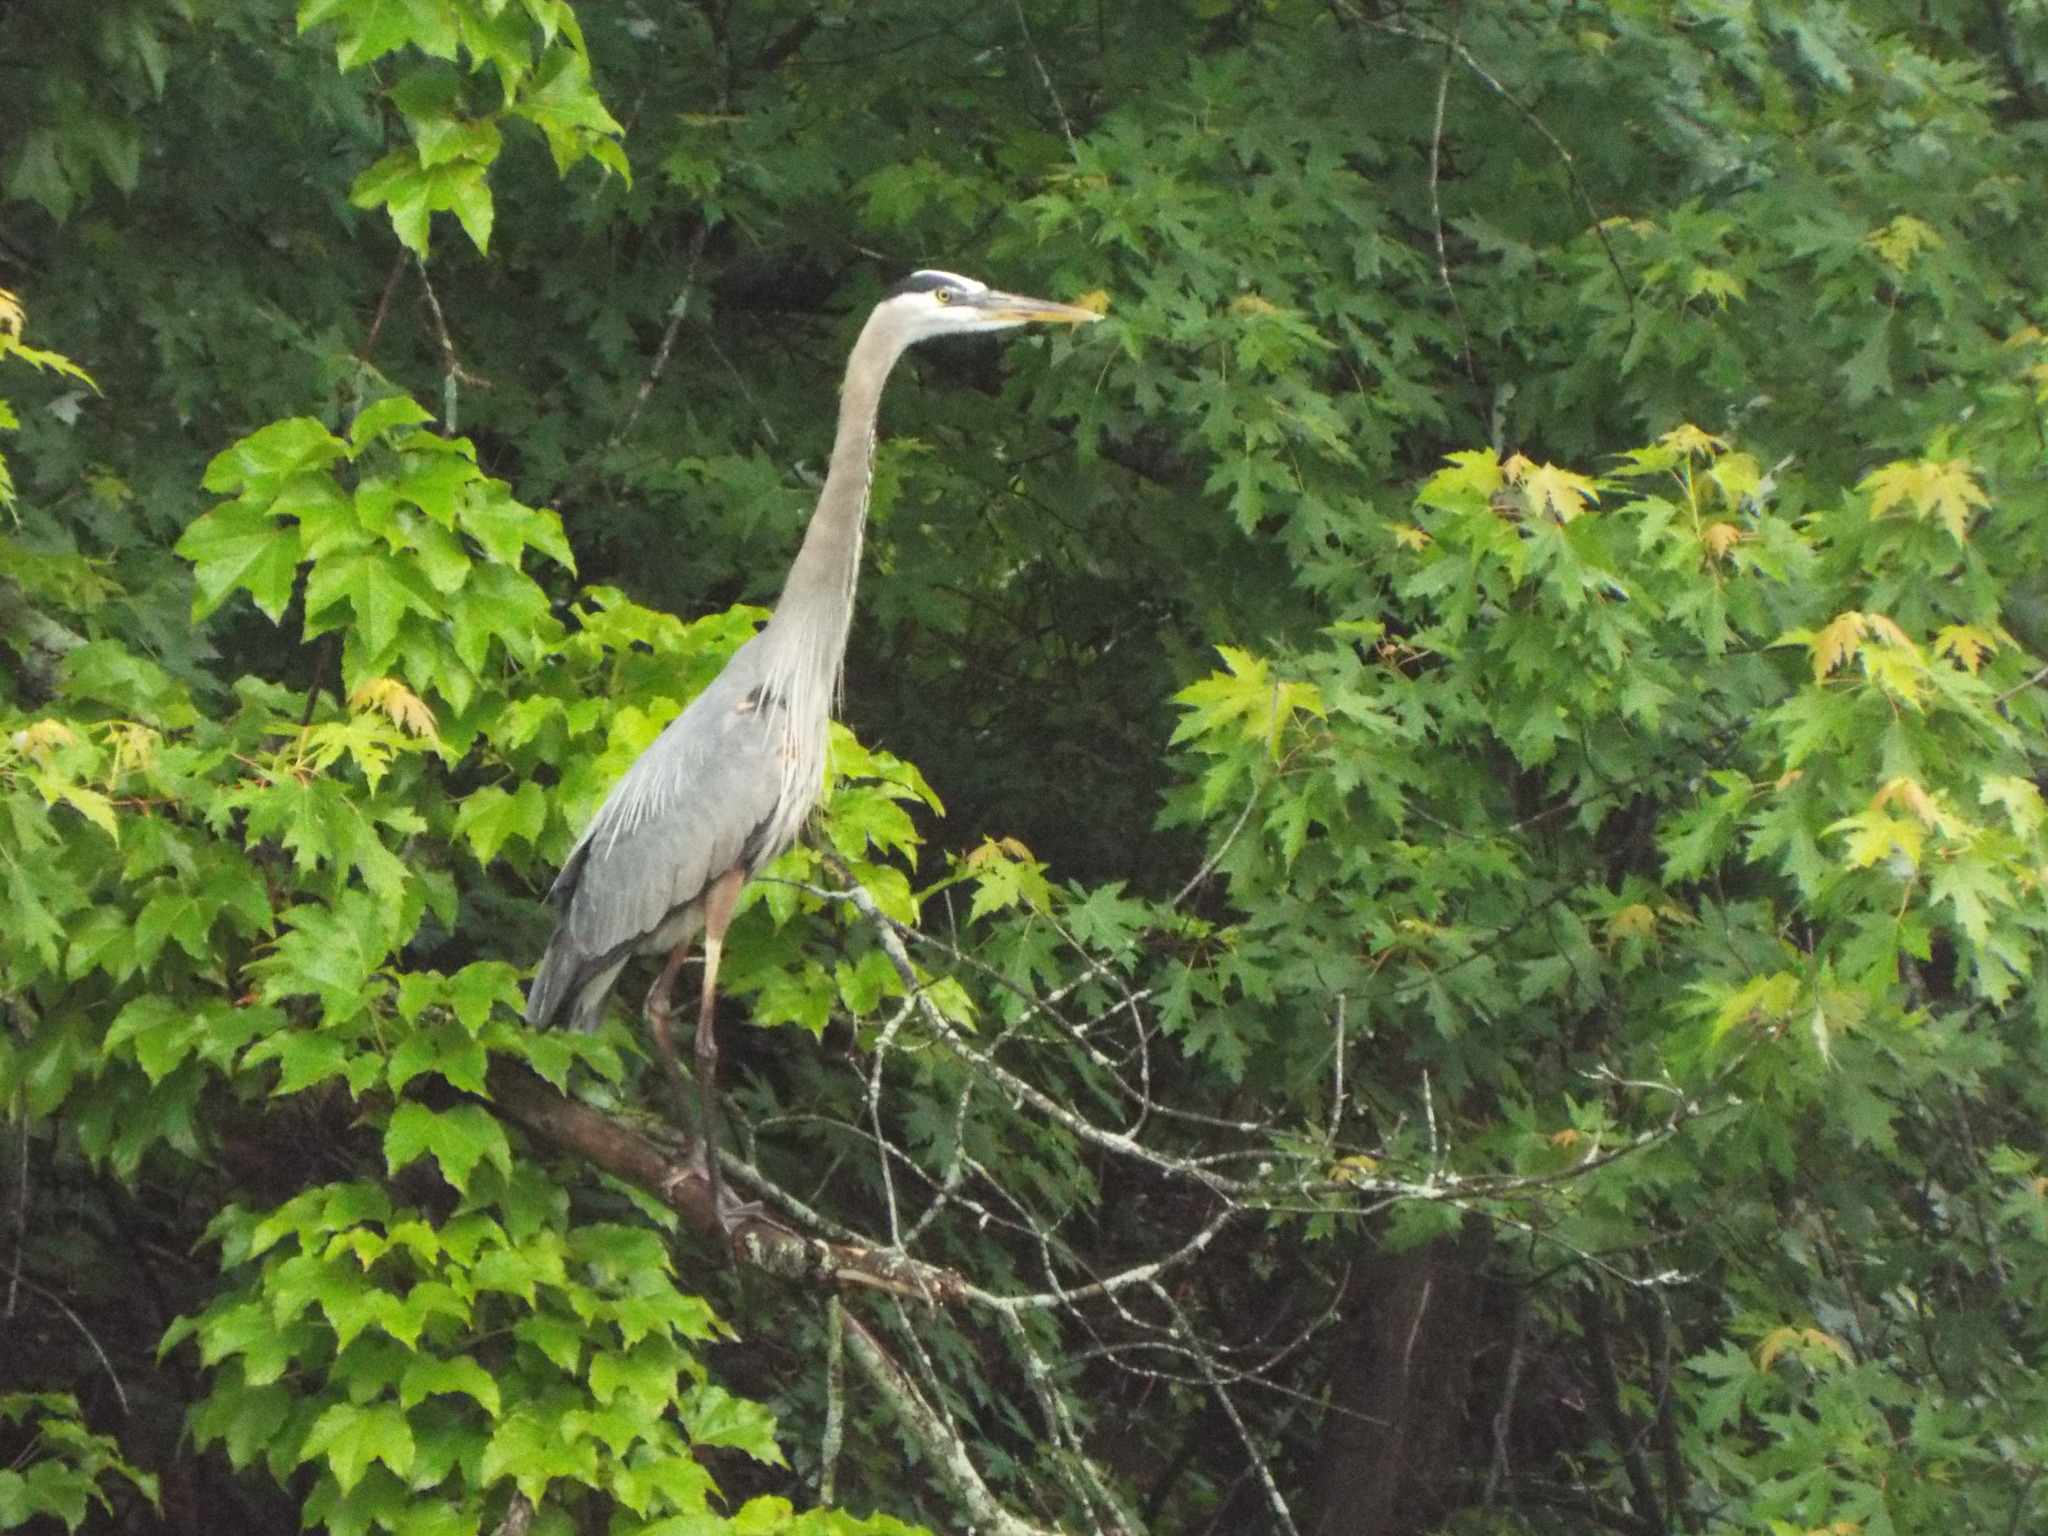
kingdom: Animalia
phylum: Chordata
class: Aves
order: Pelecaniformes
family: Ardeidae
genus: Ardea
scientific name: Ardea herodias
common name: Great blue heron
